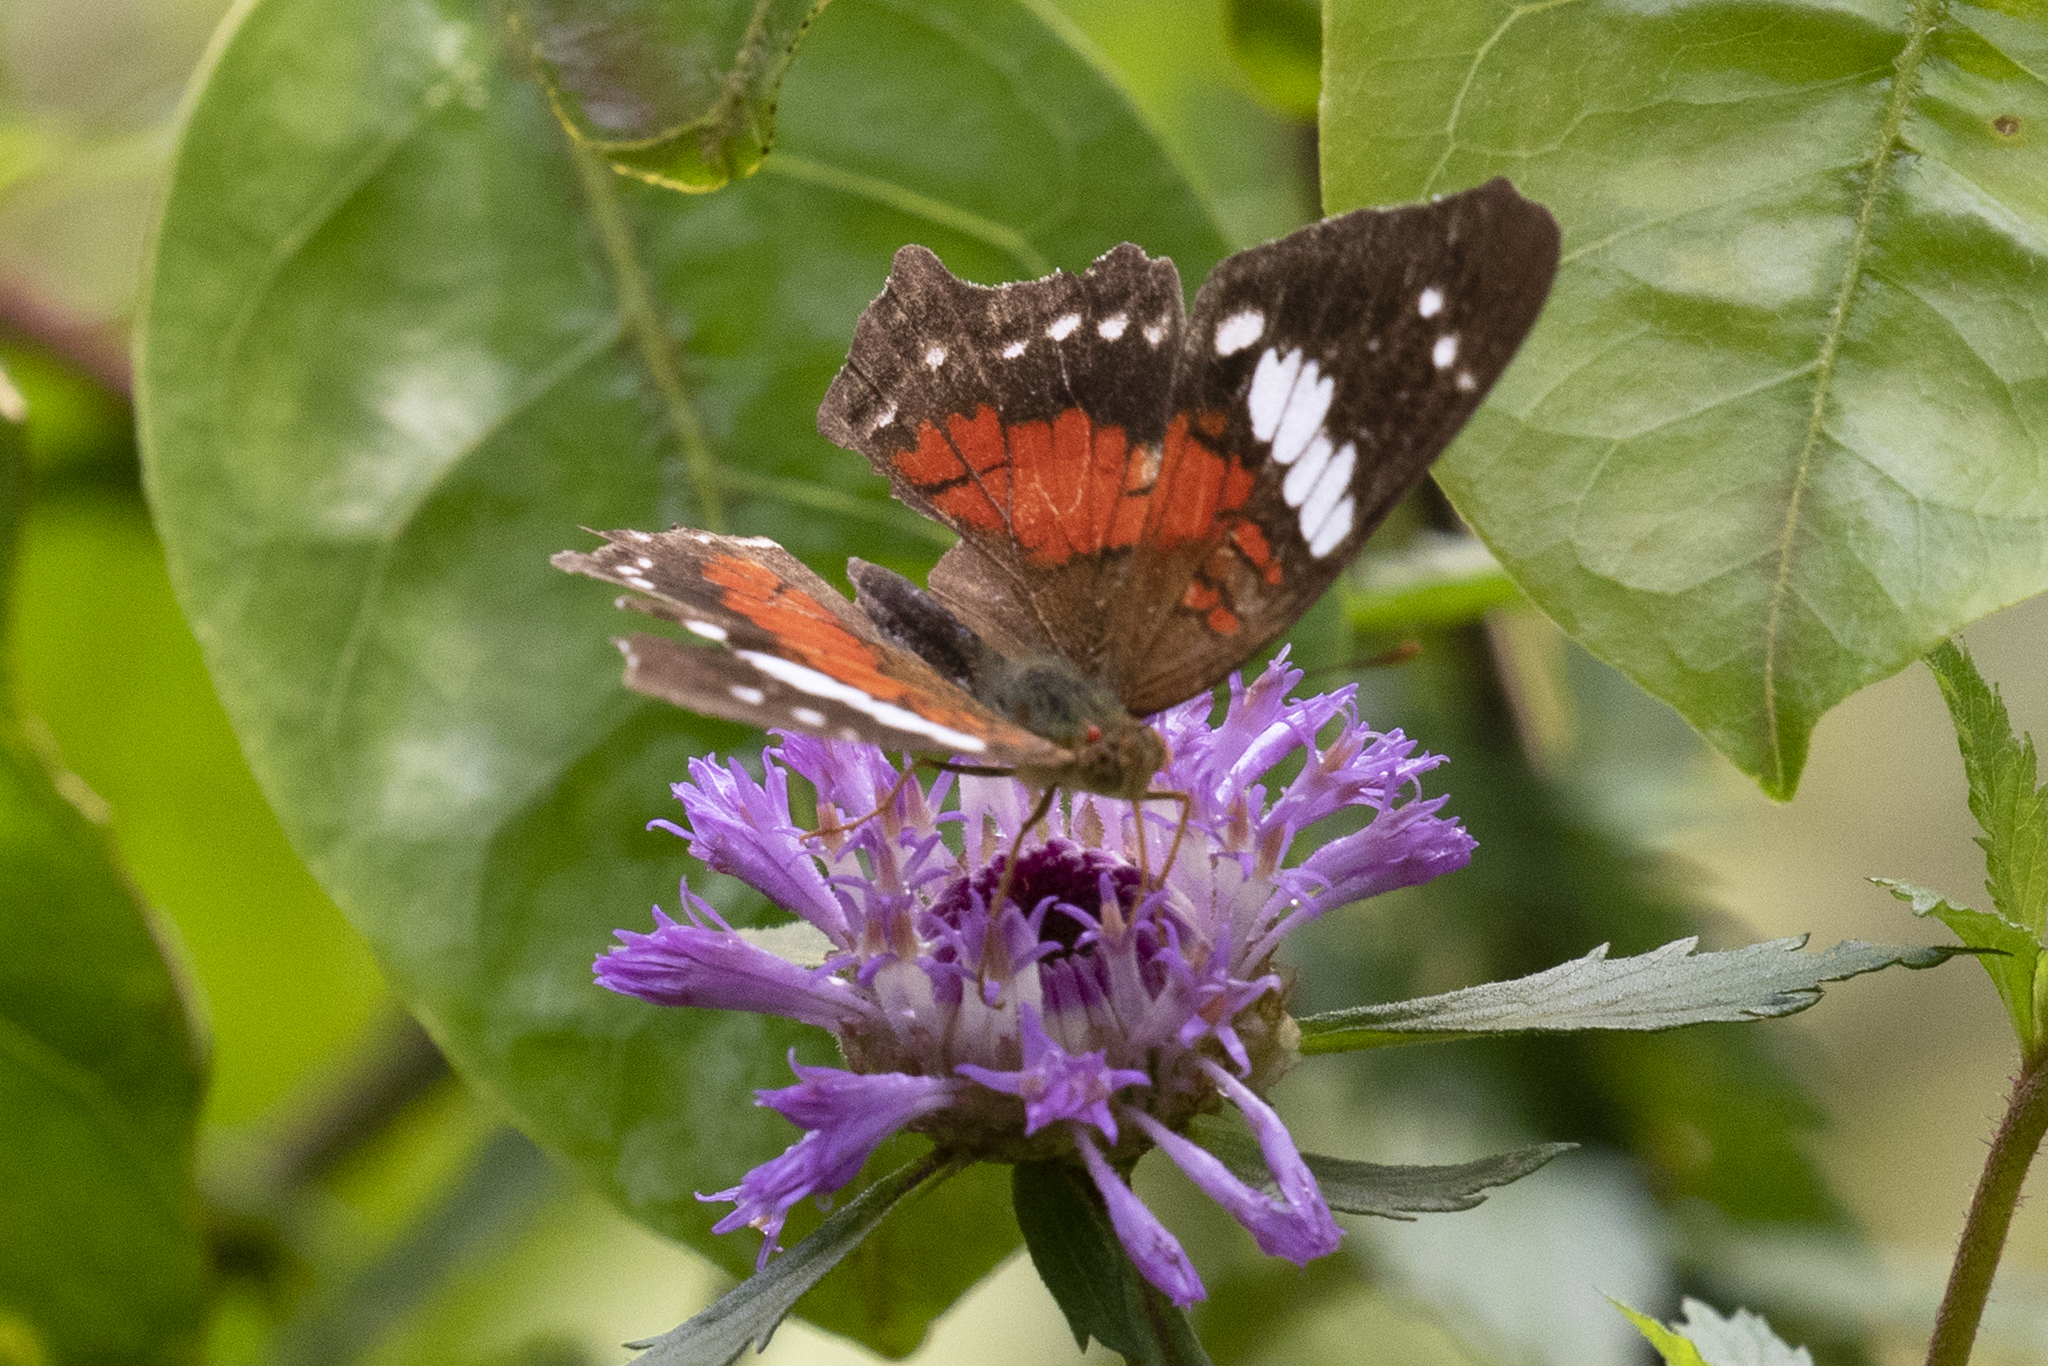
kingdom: Animalia
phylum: Arthropoda
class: Insecta
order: Lepidoptera
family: Nymphalidae
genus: Anartia
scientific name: Anartia amathea
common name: Red peacock
